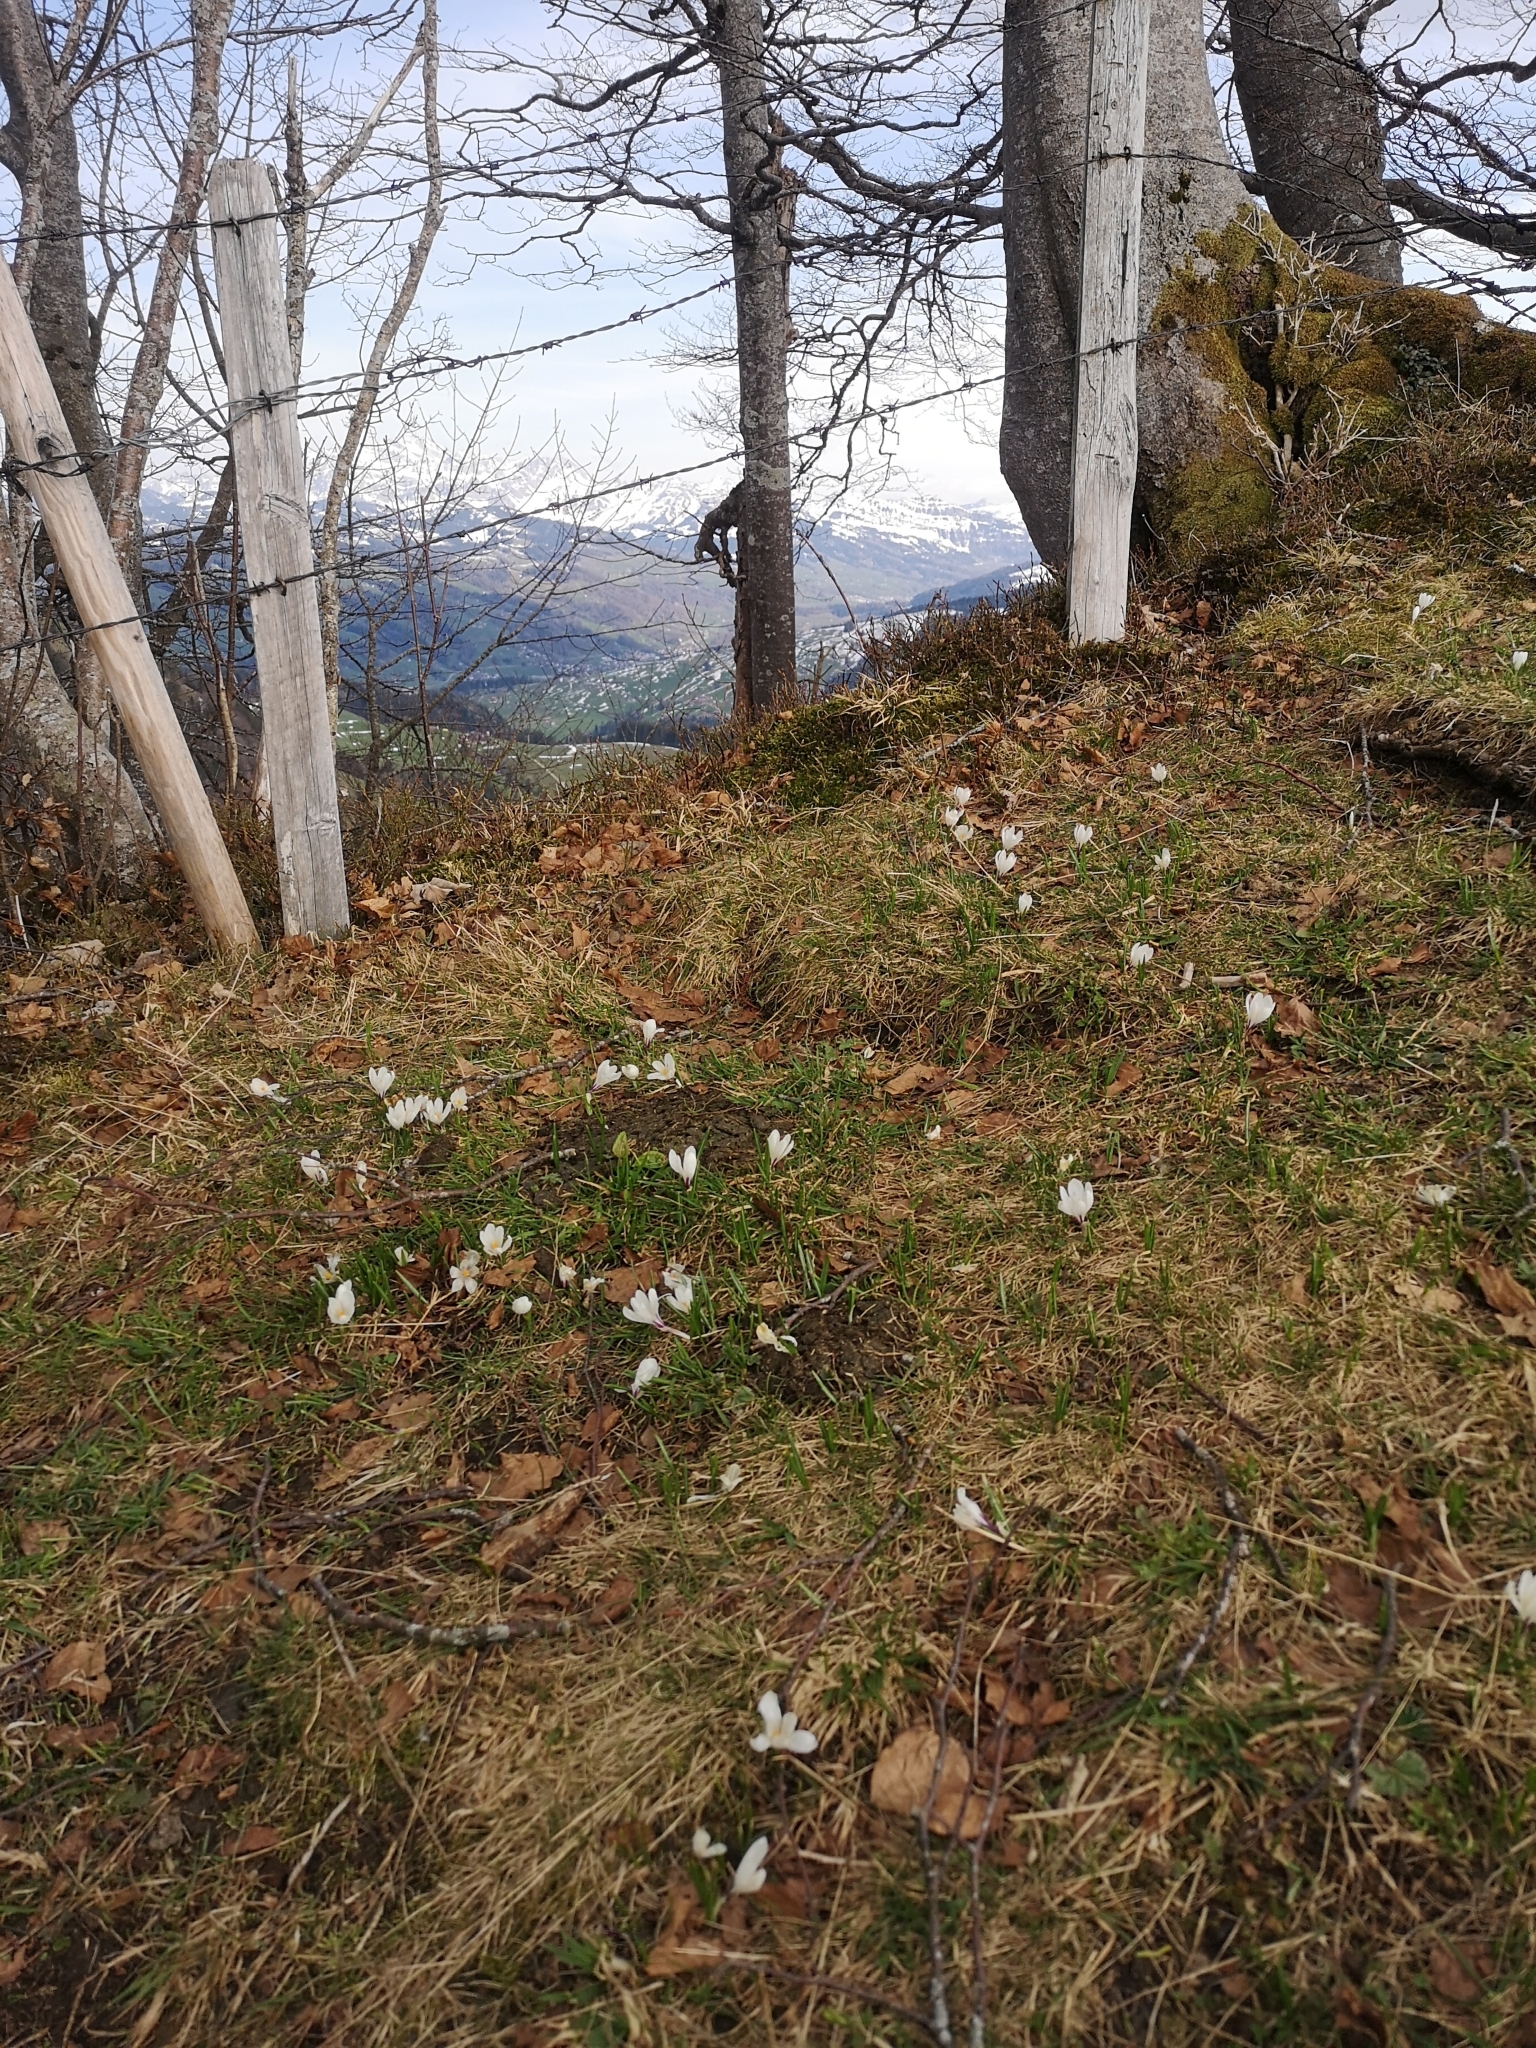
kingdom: Plantae
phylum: Tracheophyta
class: Liliopsida
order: Asparagales
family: Iridaceae
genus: Crocus
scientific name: Crocus vernus
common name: Spring crocus
